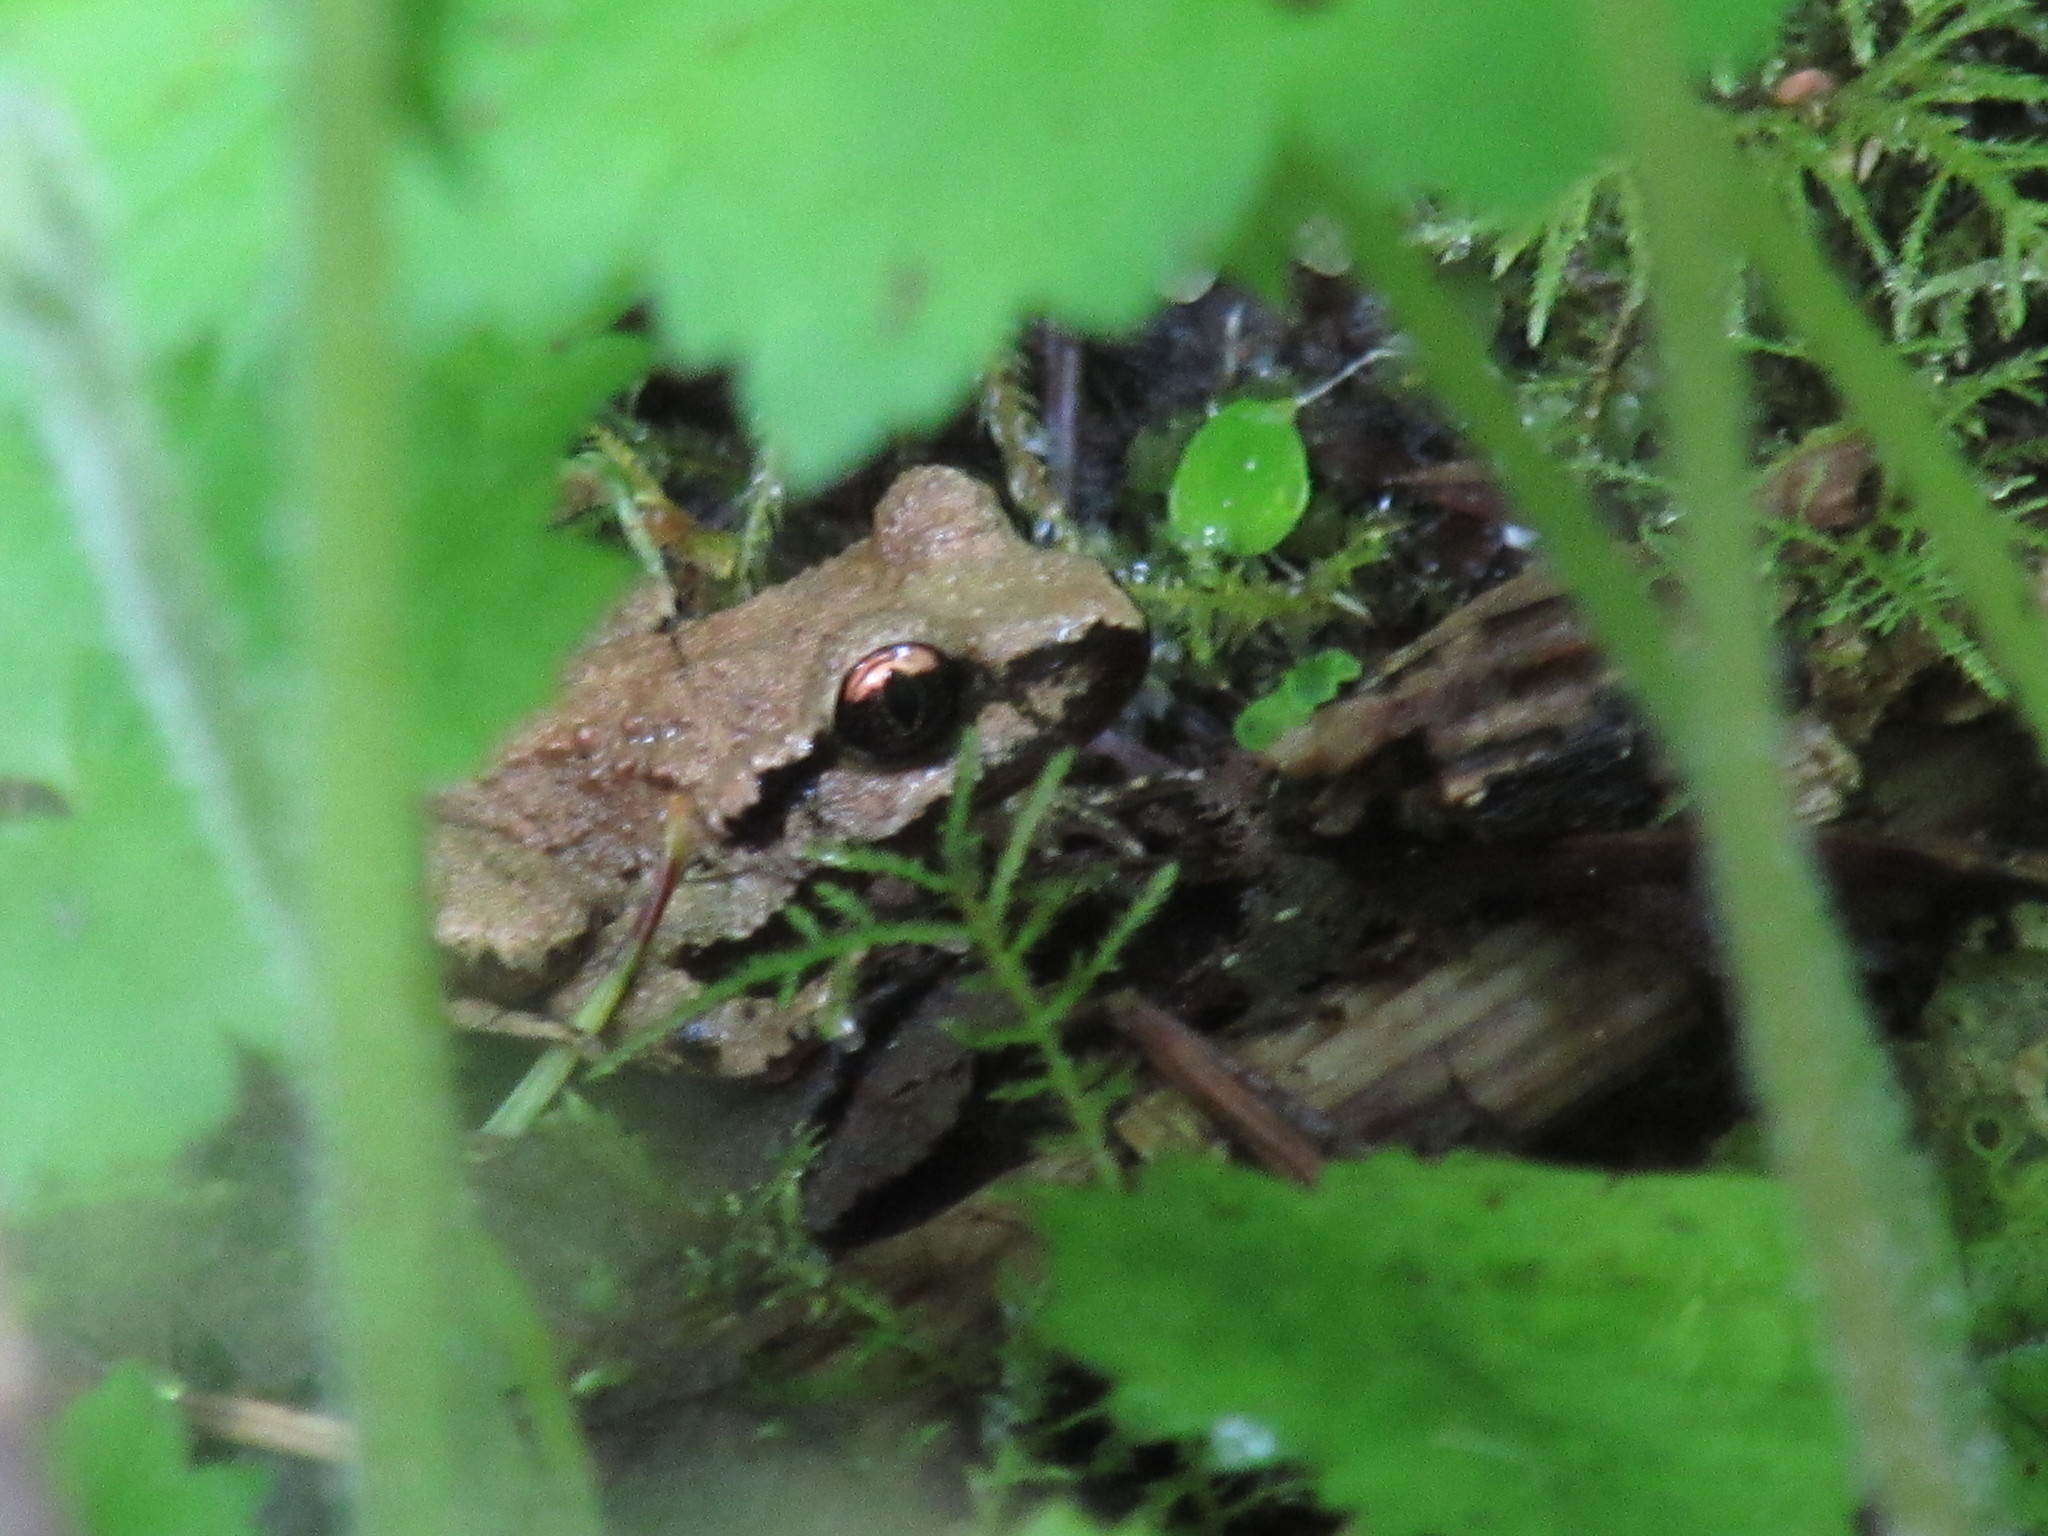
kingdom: Animalia
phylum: Chordata
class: Amphibia
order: Anura
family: Ascaphidae
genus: Ascaphus
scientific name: Ascaphus truei
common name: Tailed frog
